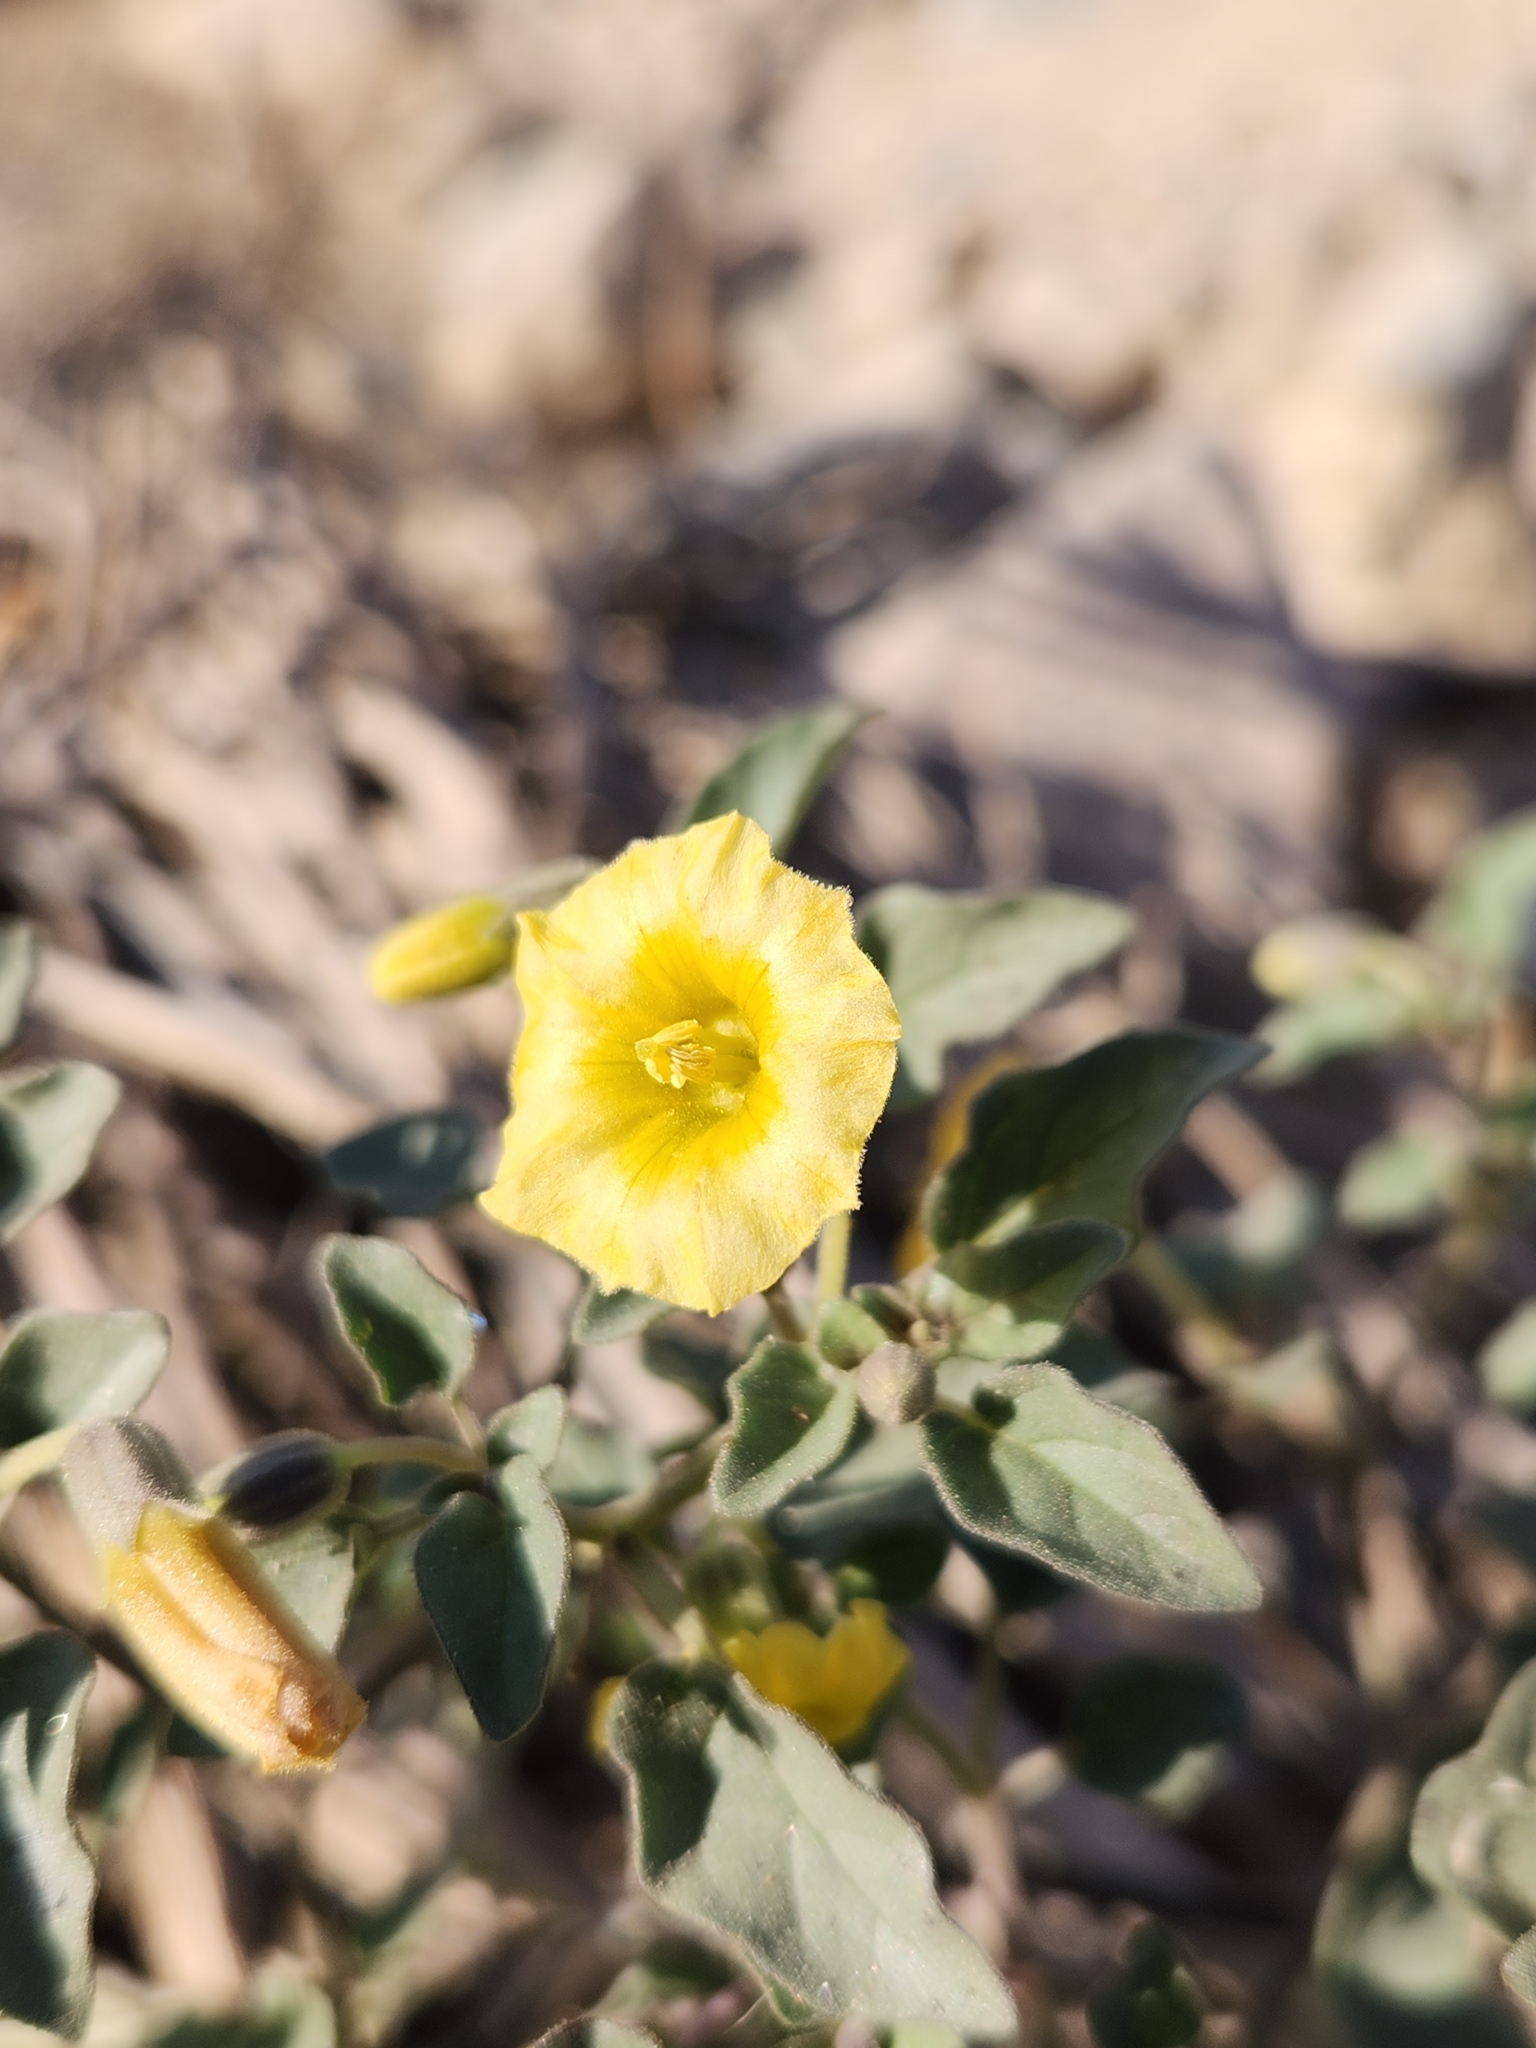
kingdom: Plantae
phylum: Tracheophyta
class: Magnoliopsida
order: Solanales
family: Solanaceae
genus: Physalis
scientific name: Physalis crassifolia
